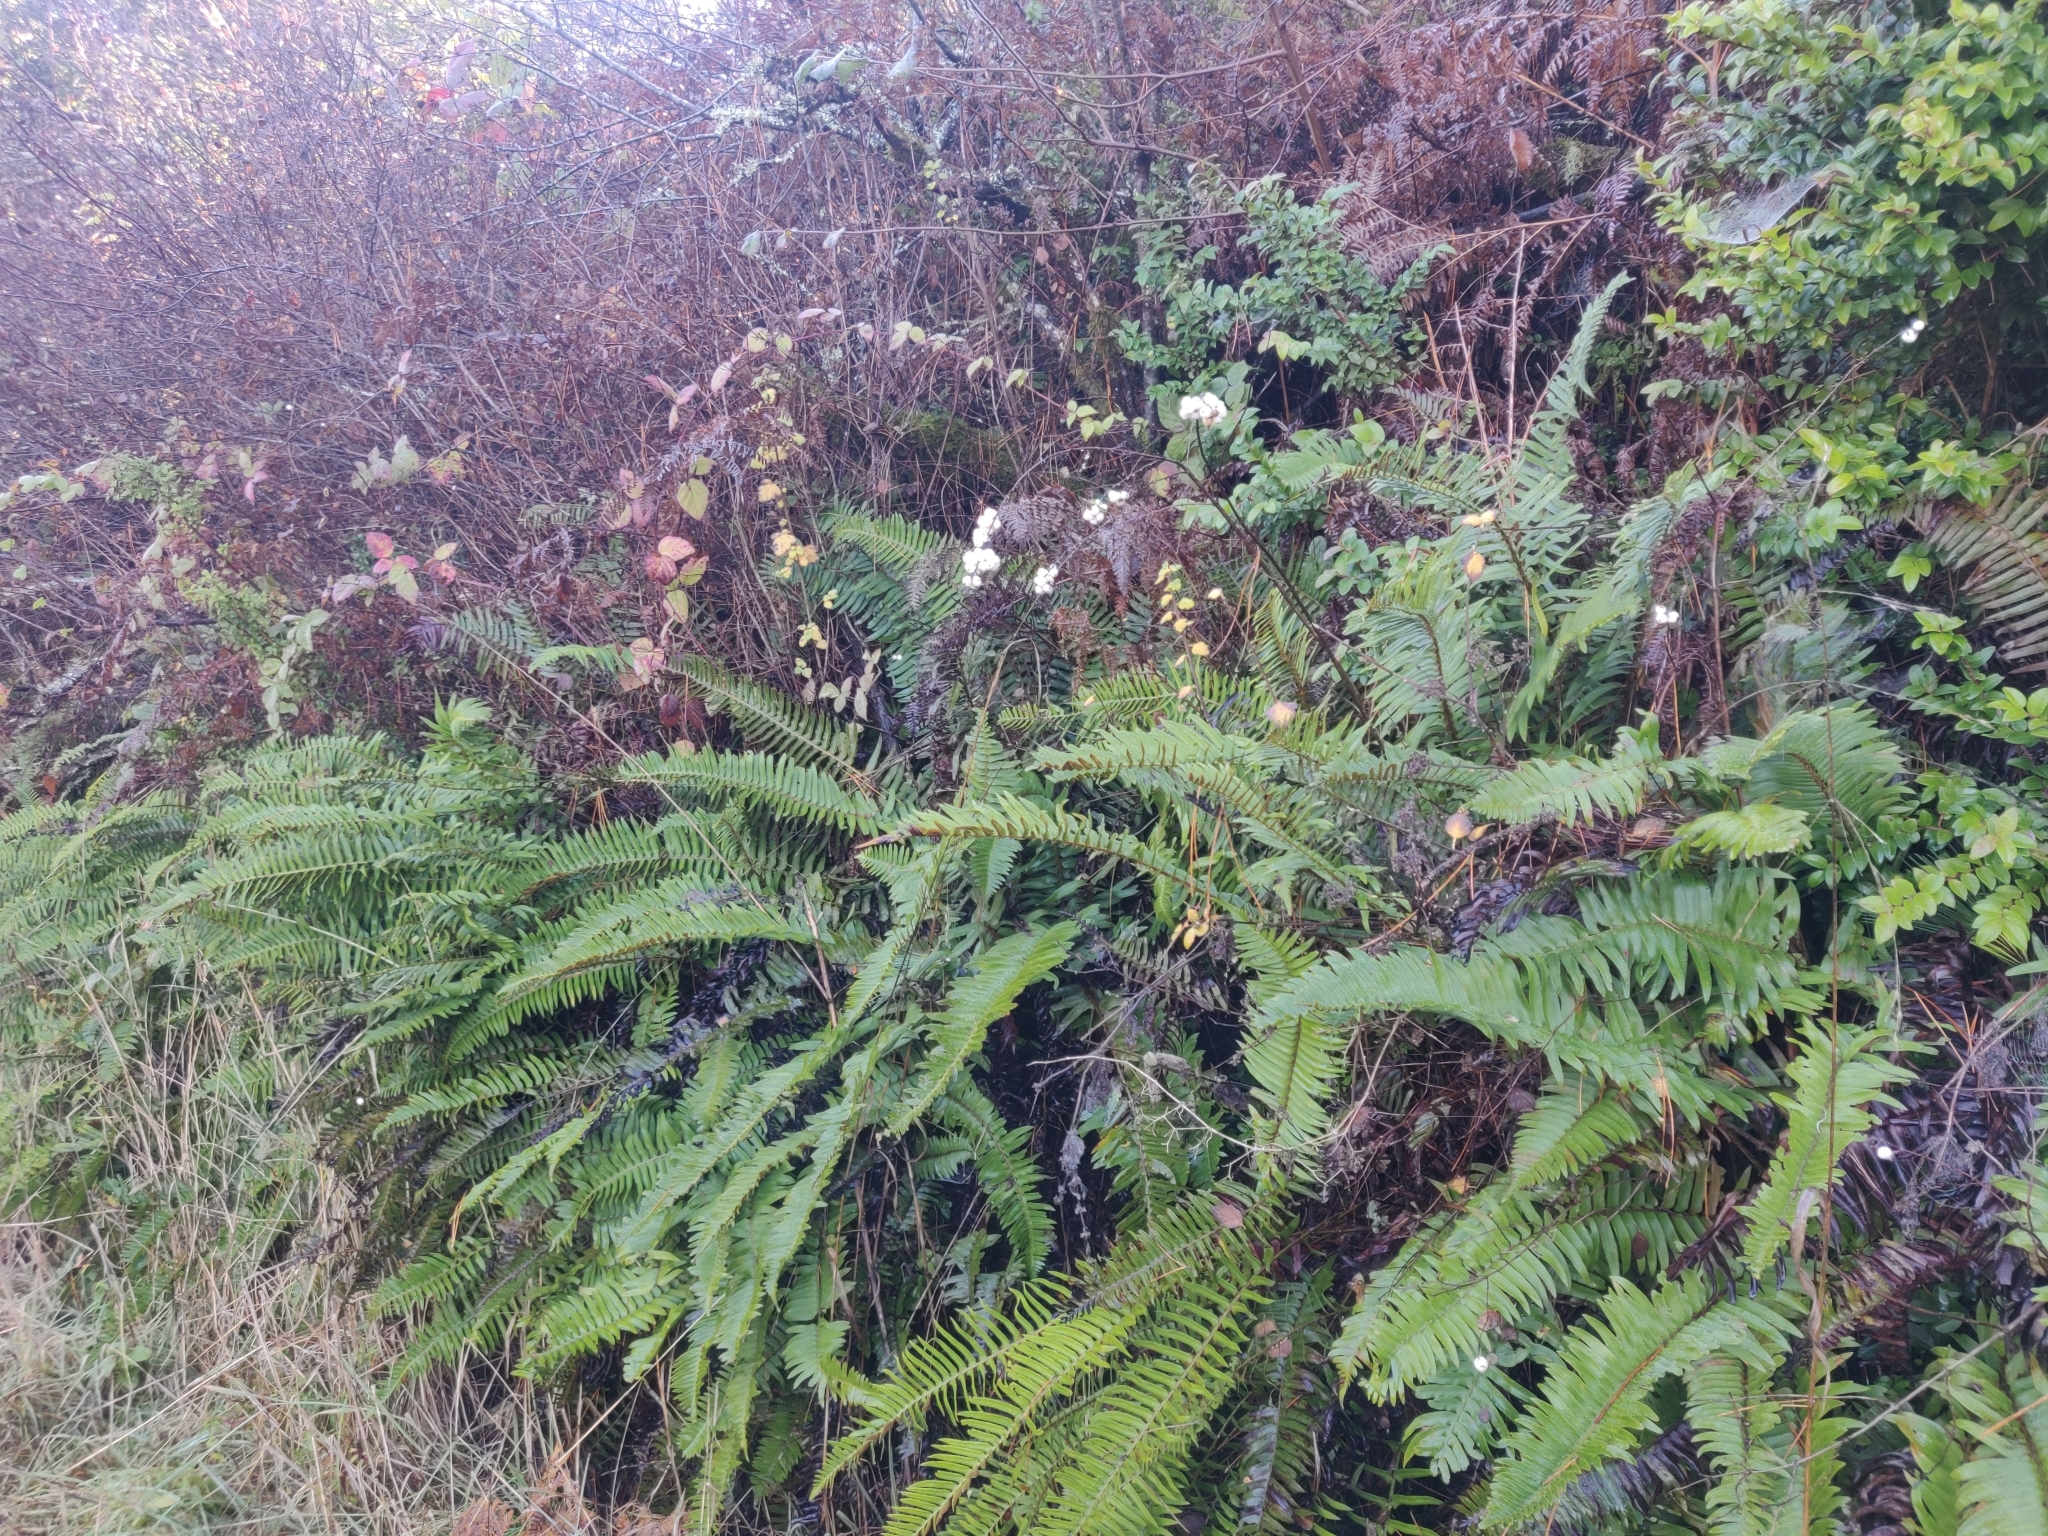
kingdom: Plantae
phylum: Tracheophyta
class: Magnoliopsida
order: Dipsacales
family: Caprifoliaceae
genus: Symphoricarpos
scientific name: Symphoricarpos albus
